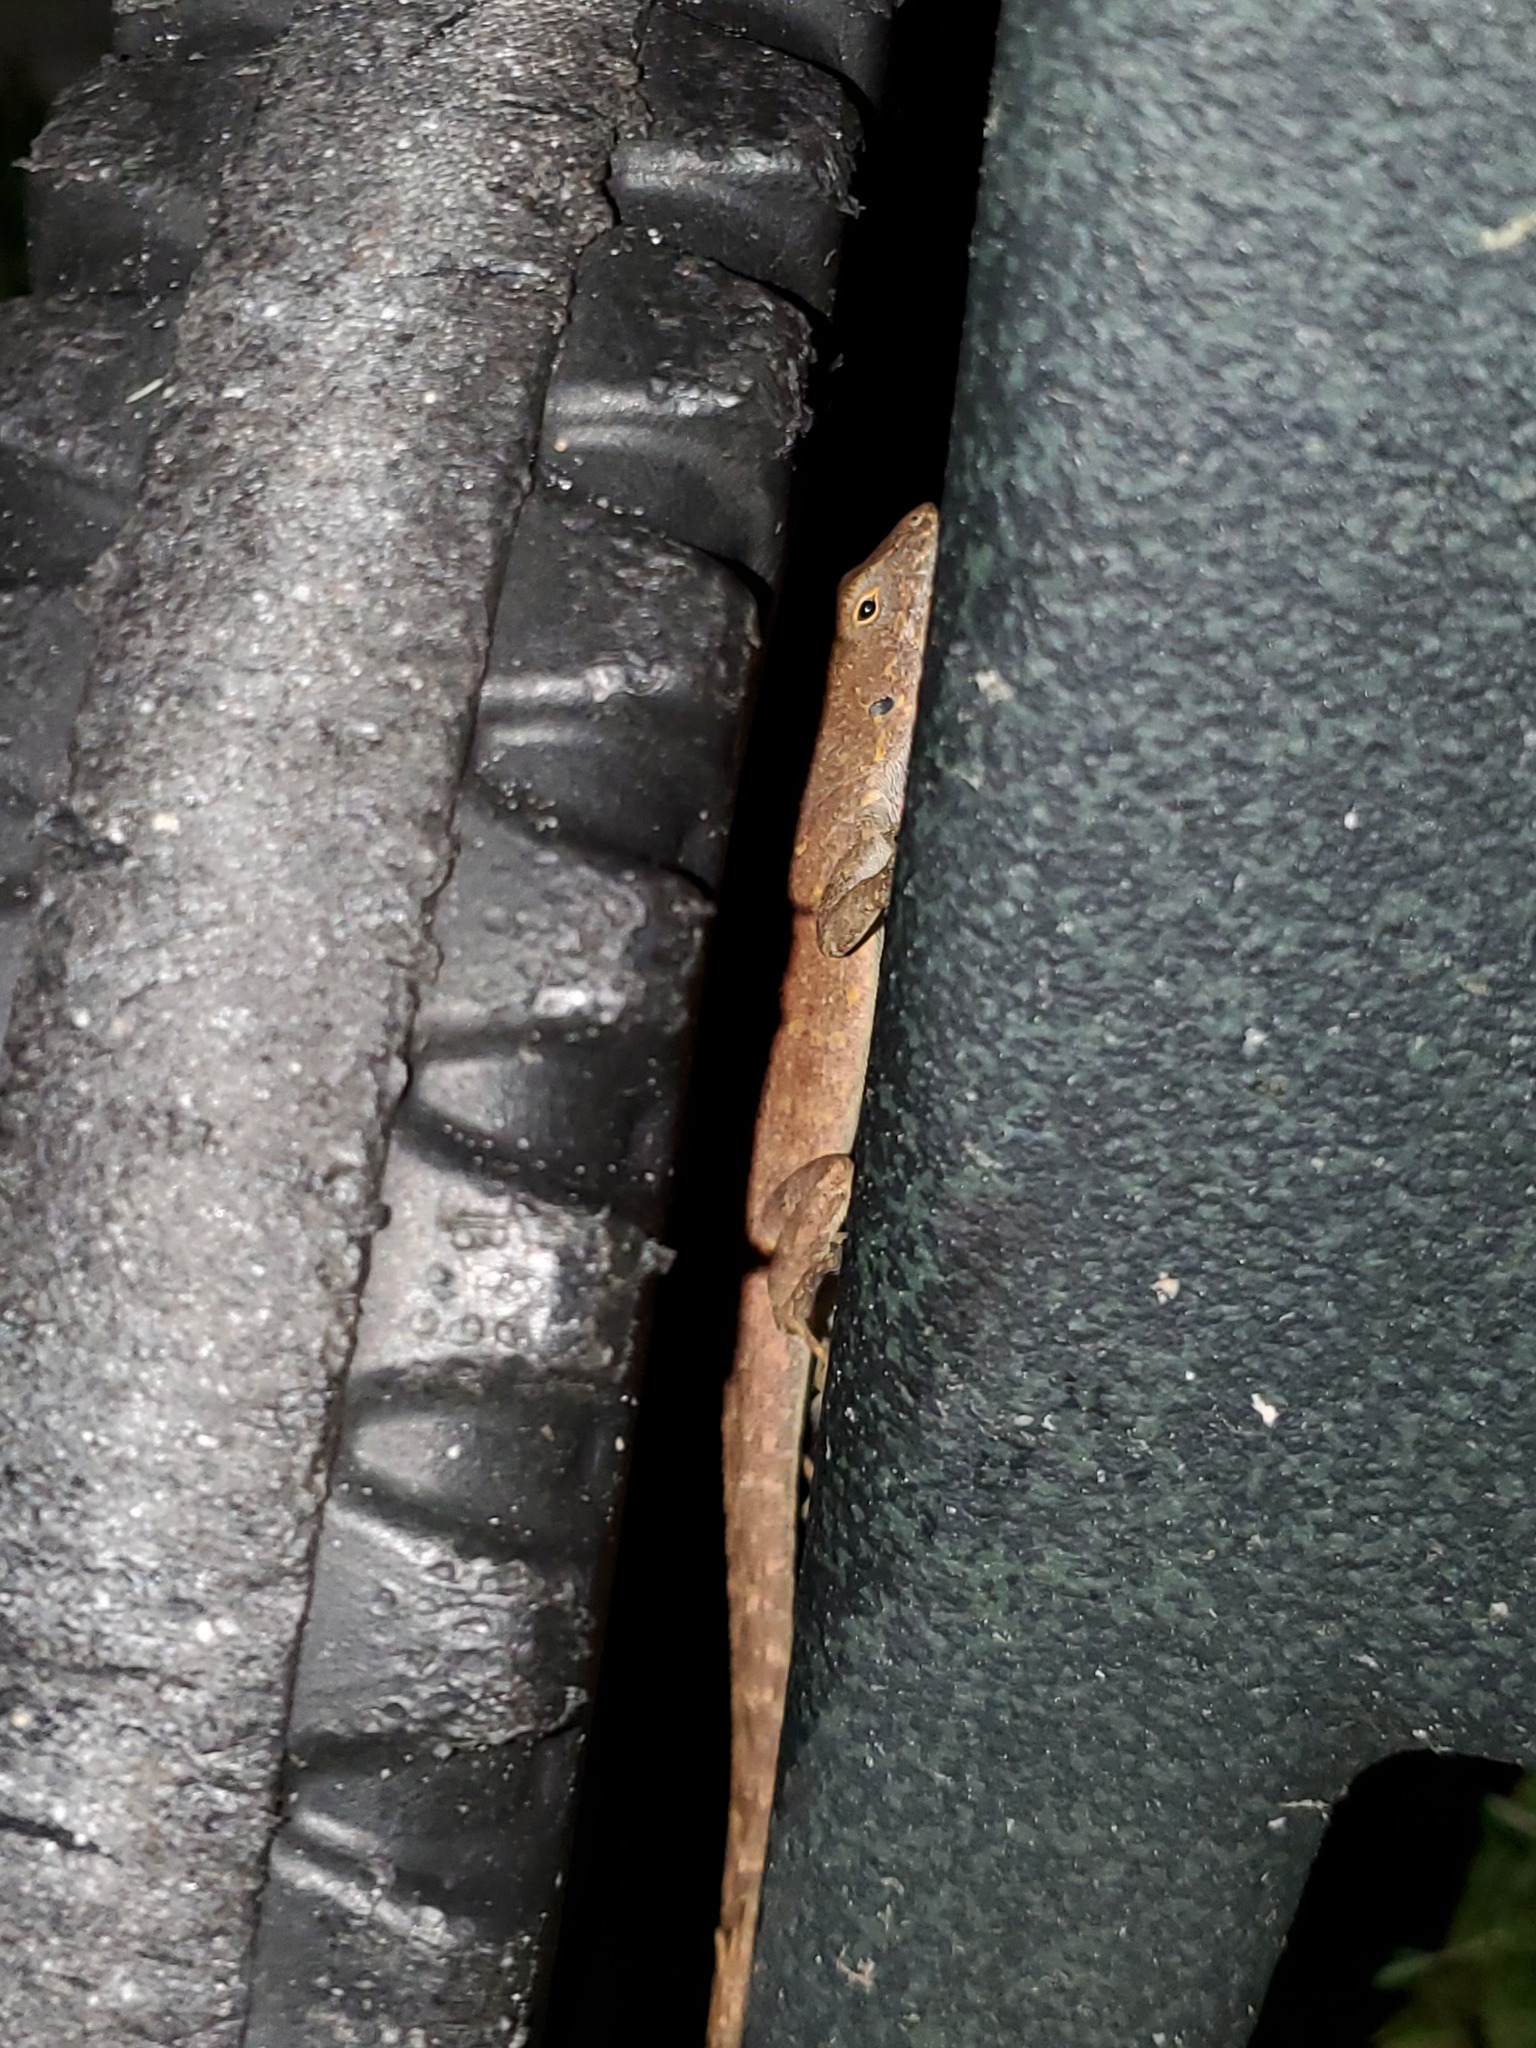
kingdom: Animalia
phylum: Chordata
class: Squamata
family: Dactyloidae
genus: Anolis
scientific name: Anolis sagrei
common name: Brown anole
